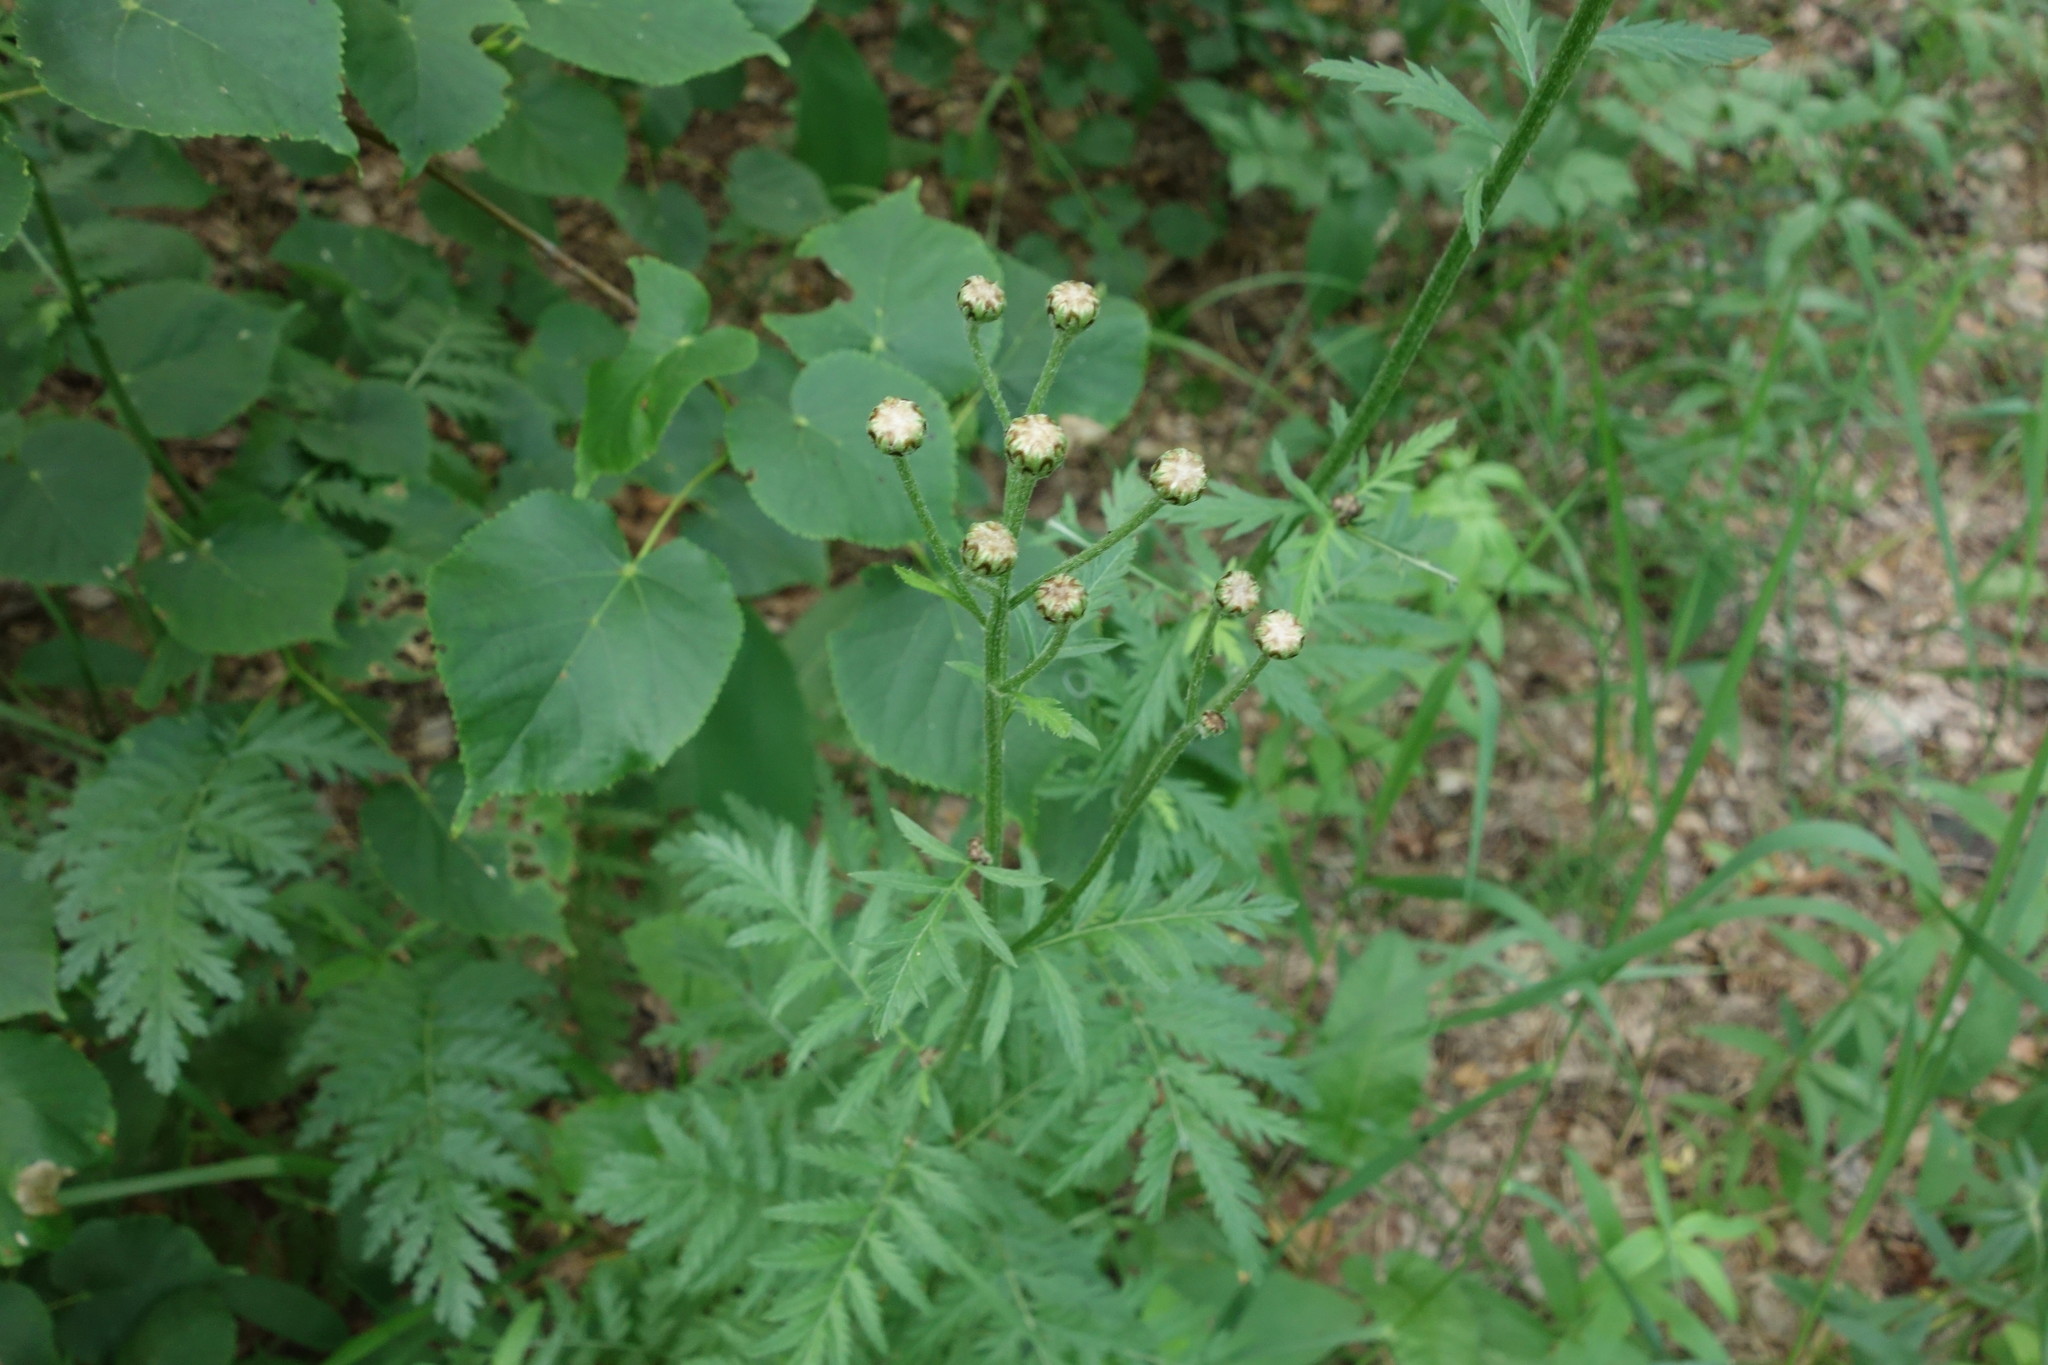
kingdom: Plantae
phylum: Tracheophyta
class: Magnoliopsida
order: Asterales
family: Asteraceae
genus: Tanacetum
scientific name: Tanacetum corymbosum
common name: Scentless feverfew
